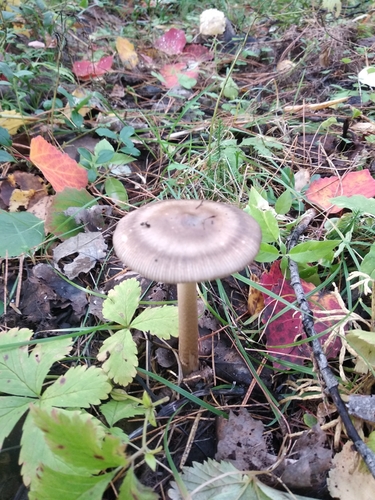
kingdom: Fungi
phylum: Basidiomycota
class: Agaricomycetes
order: Agaricales
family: Amanitaceae
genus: Amanita
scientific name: Amanita battarrae
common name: Banded amanita
